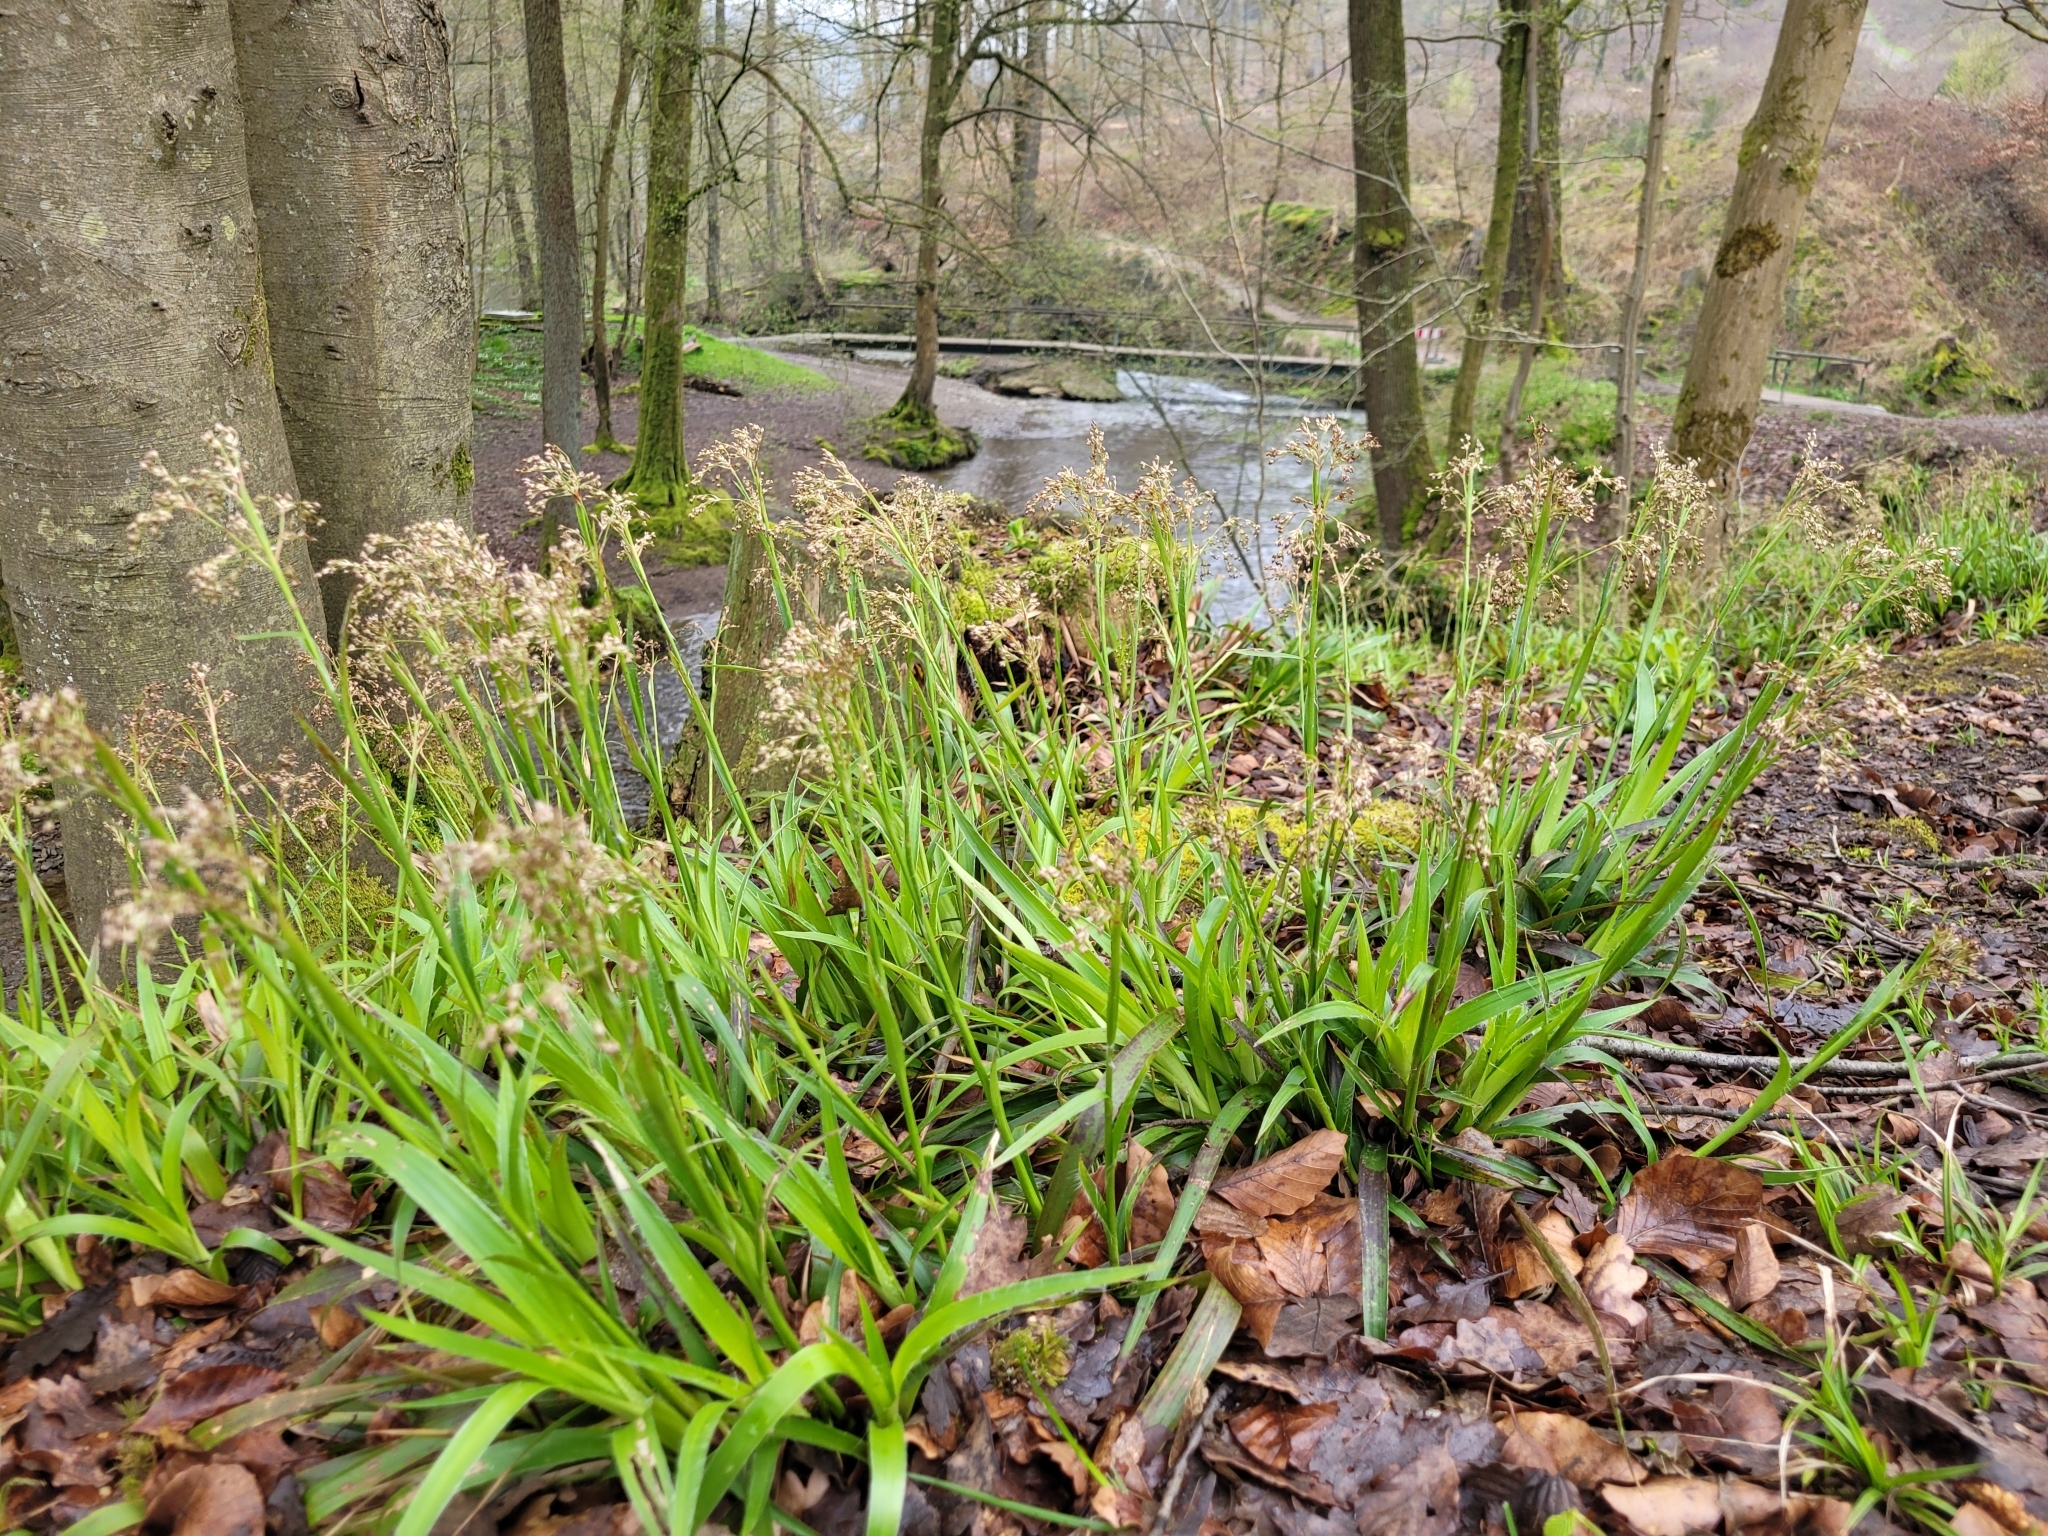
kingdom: Plantae
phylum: Tracheophyta
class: Liliopsida
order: Poales
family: Juncaceae
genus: Luzula
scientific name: Luzula sylvatica
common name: Great wood-rush
